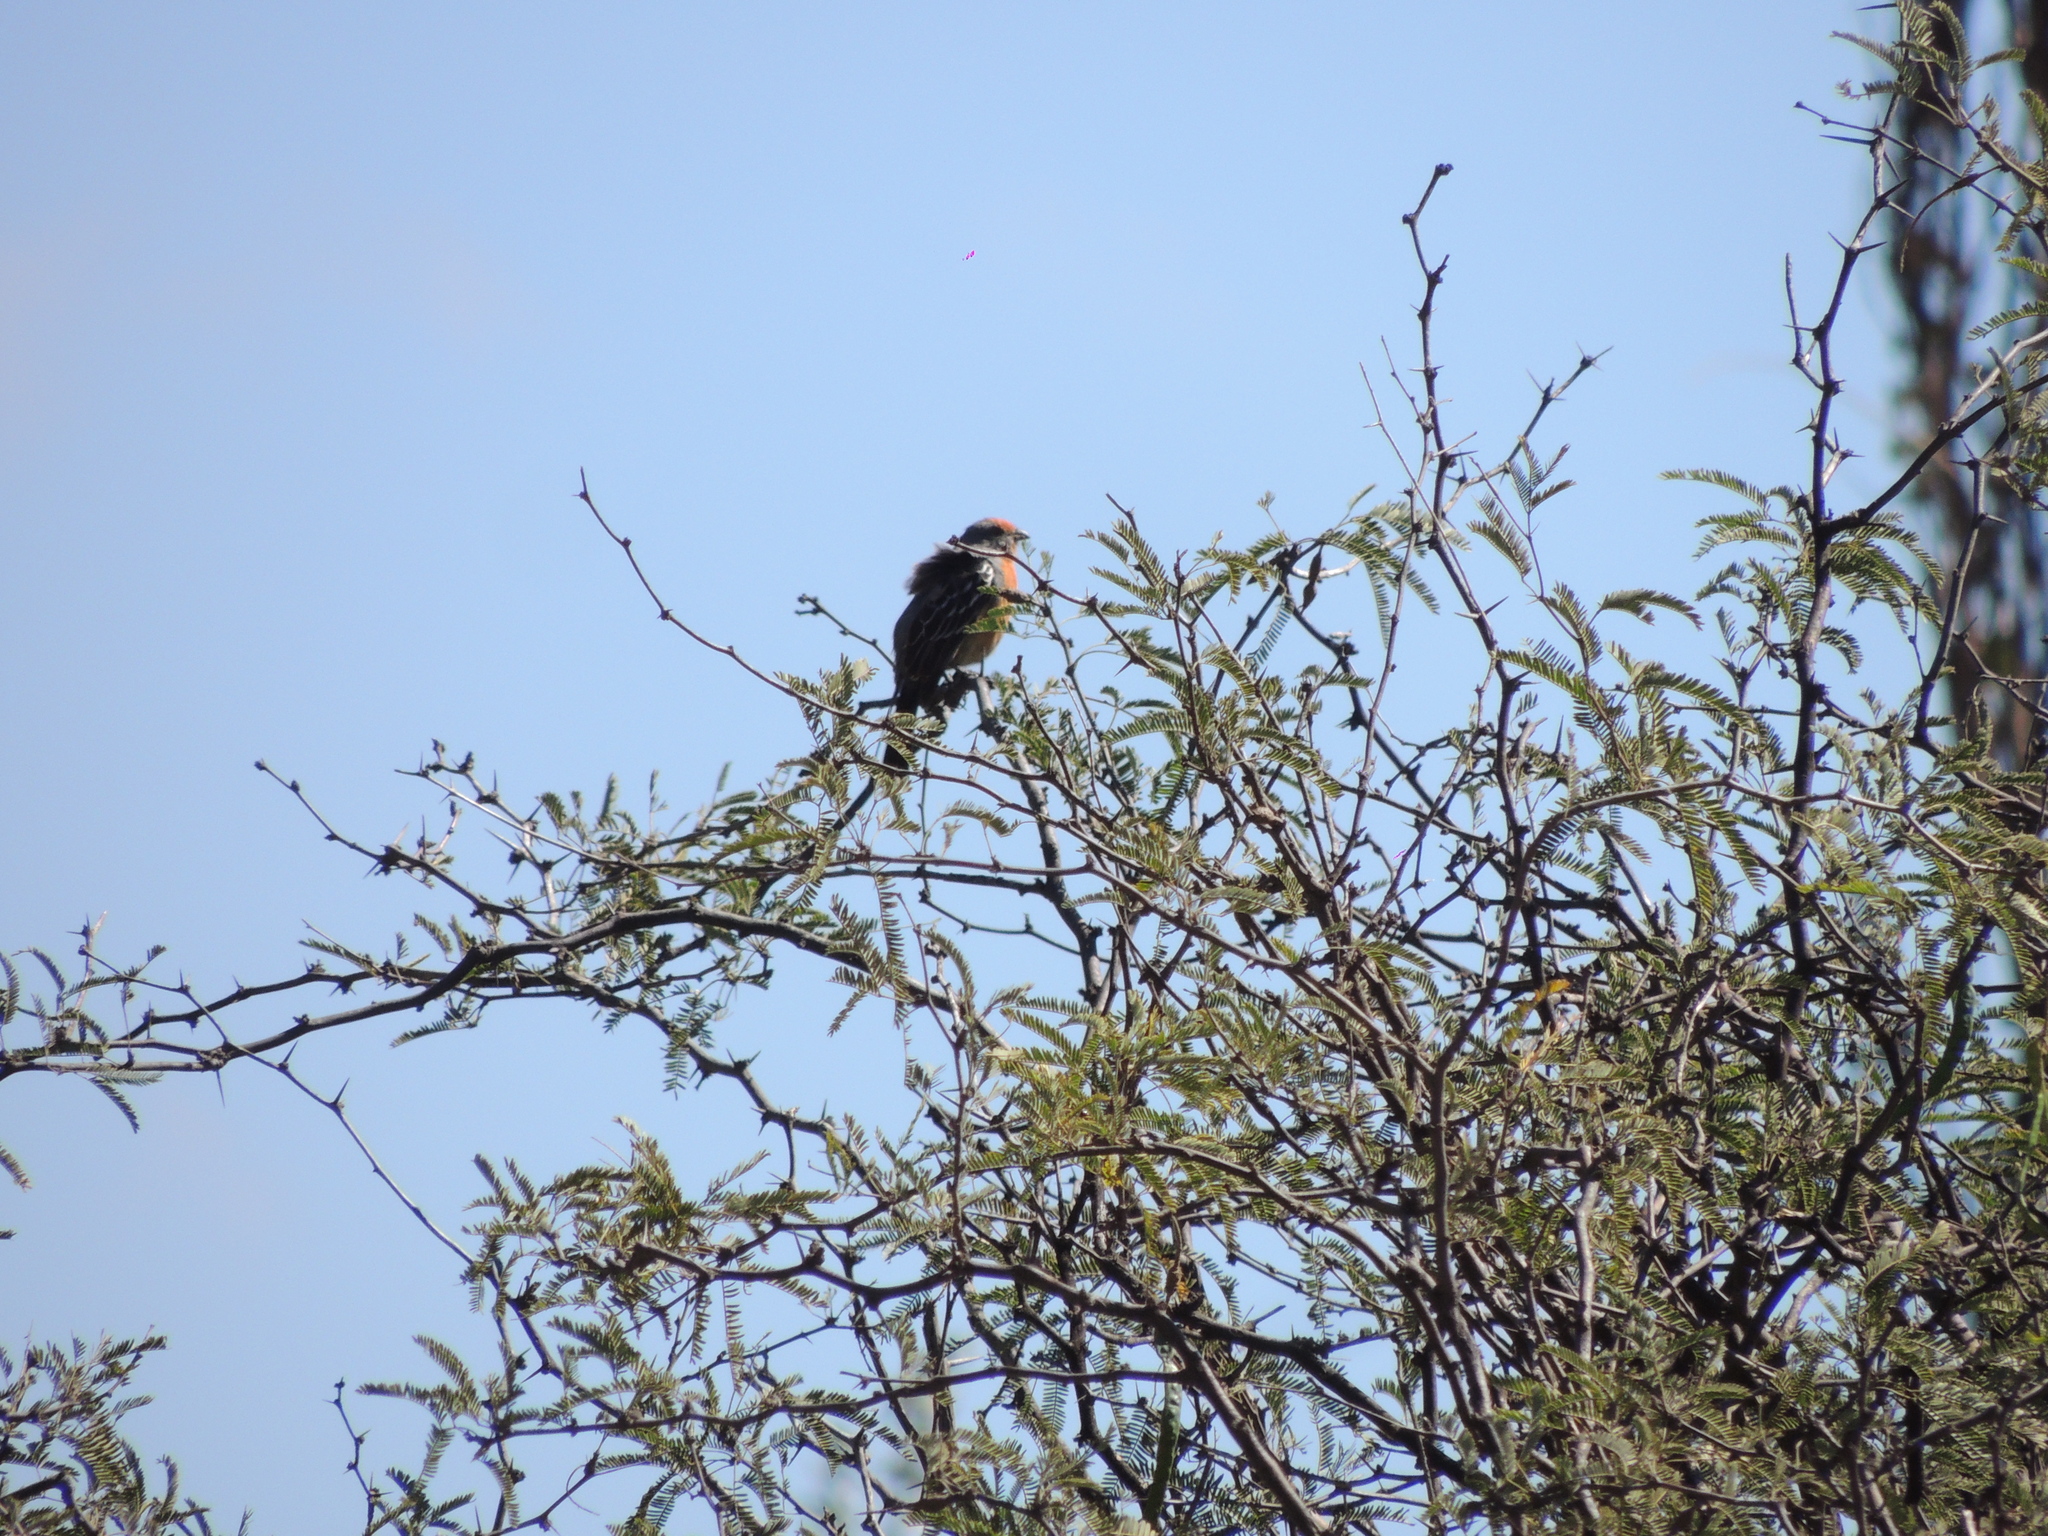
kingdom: Animalia
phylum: Chordata
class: Aves
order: Passeriformes
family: Cotingidae
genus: Phytotoma
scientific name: Phytotoma rutila
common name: White-tipped plantcutter
